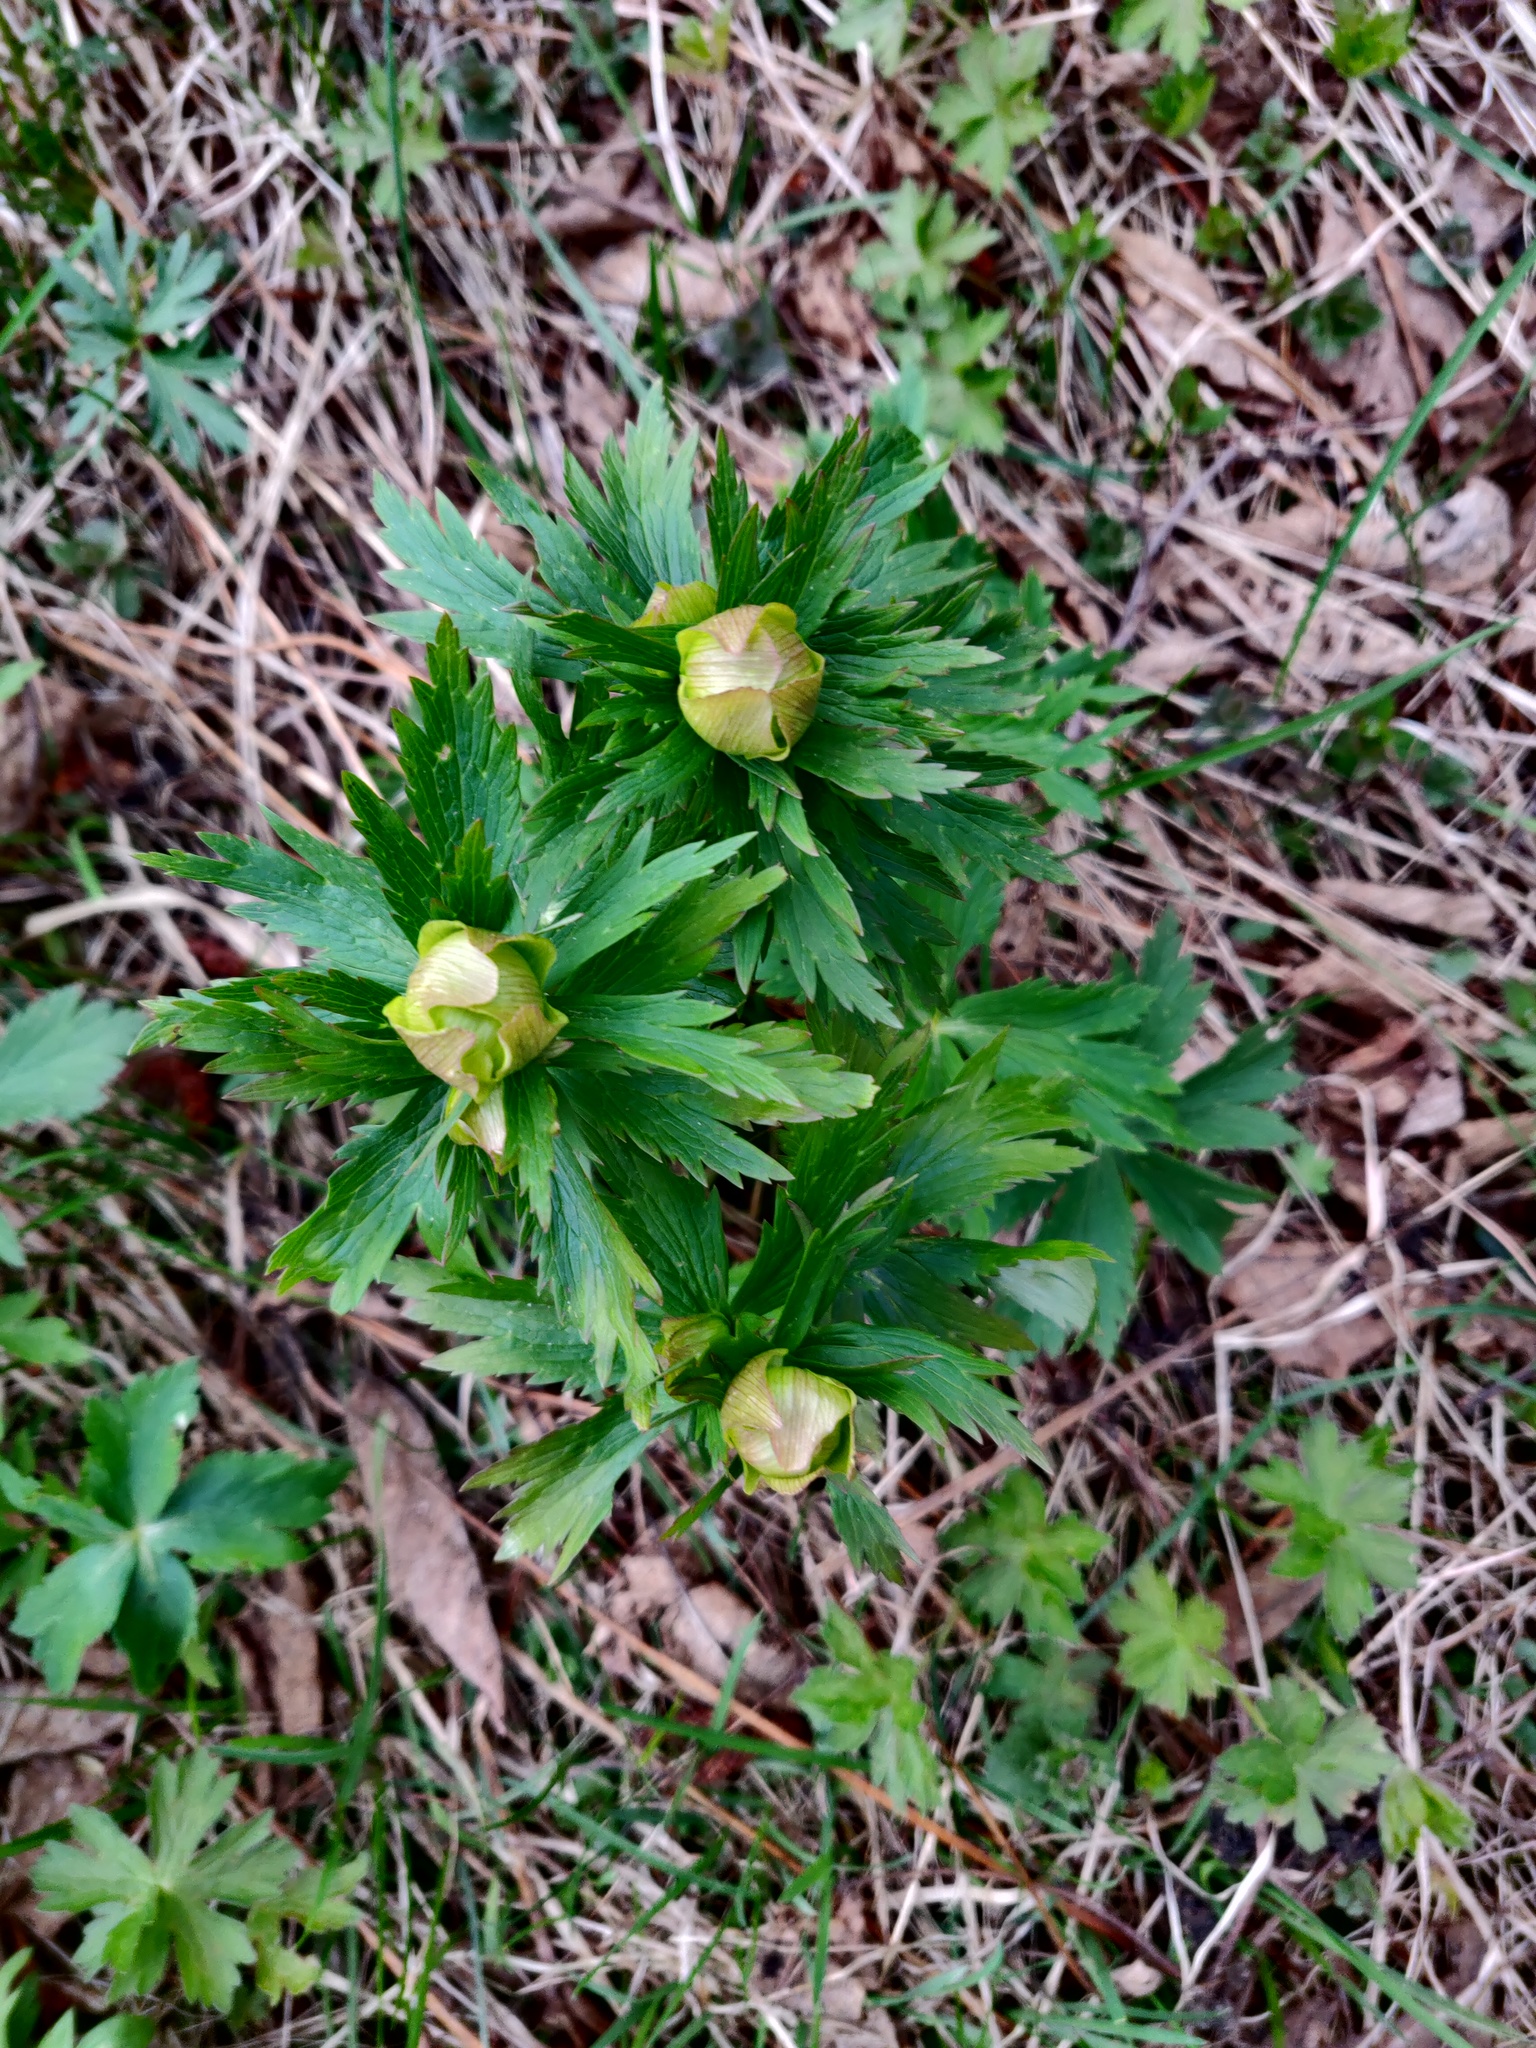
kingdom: Plantae
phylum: Tracheophyta
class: Magnoliopsida
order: Ranunculales
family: Ranunculaceae
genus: Trollius
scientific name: Trollius europaeus
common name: European globeflower
